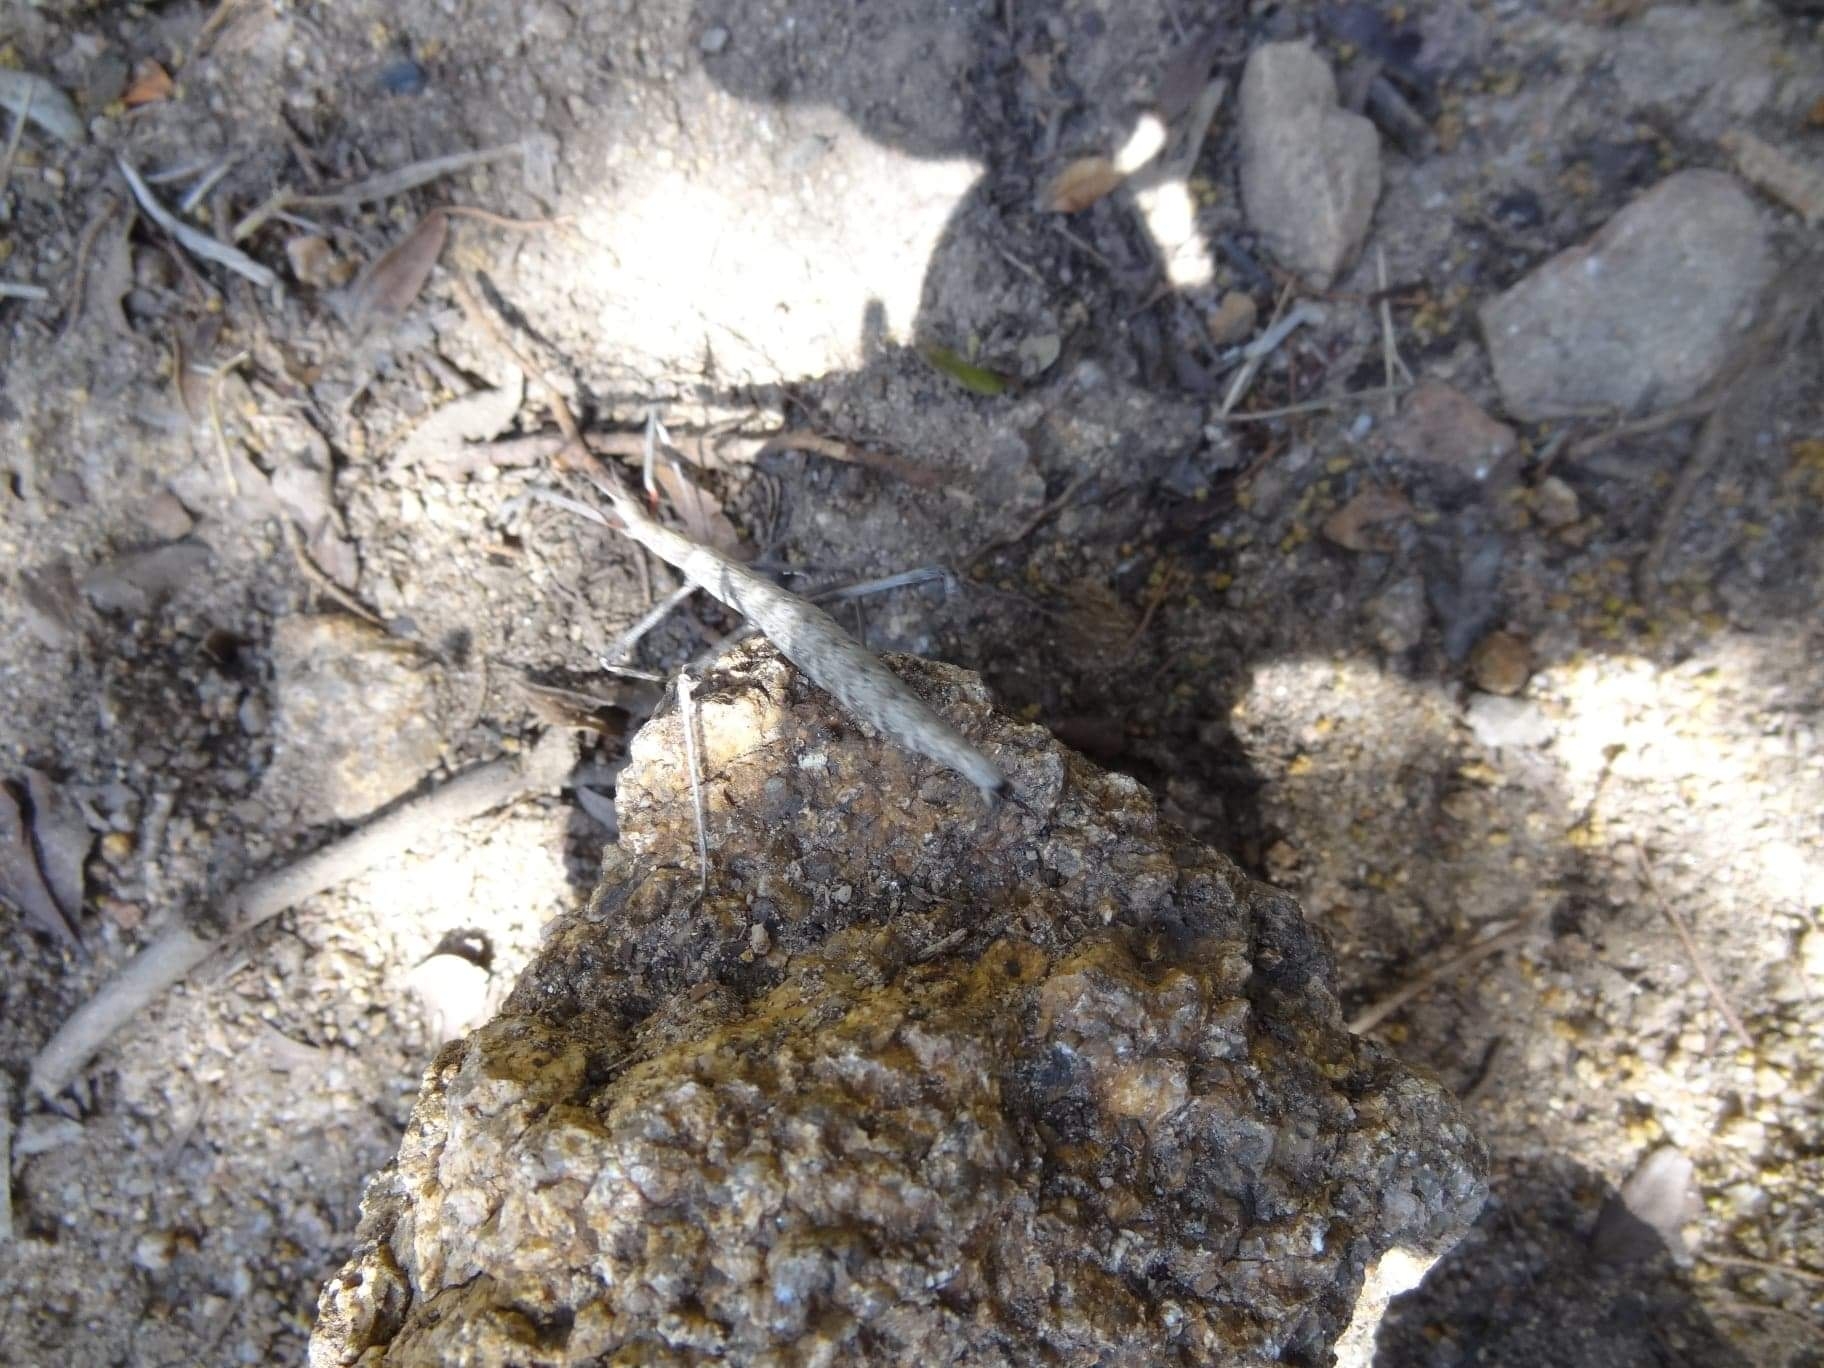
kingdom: Animalia
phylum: Arthropoda
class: Insecta
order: Phasmida
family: Bacillidae
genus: Bacillus
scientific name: Bacillus rossius
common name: Corsican stick-insect
